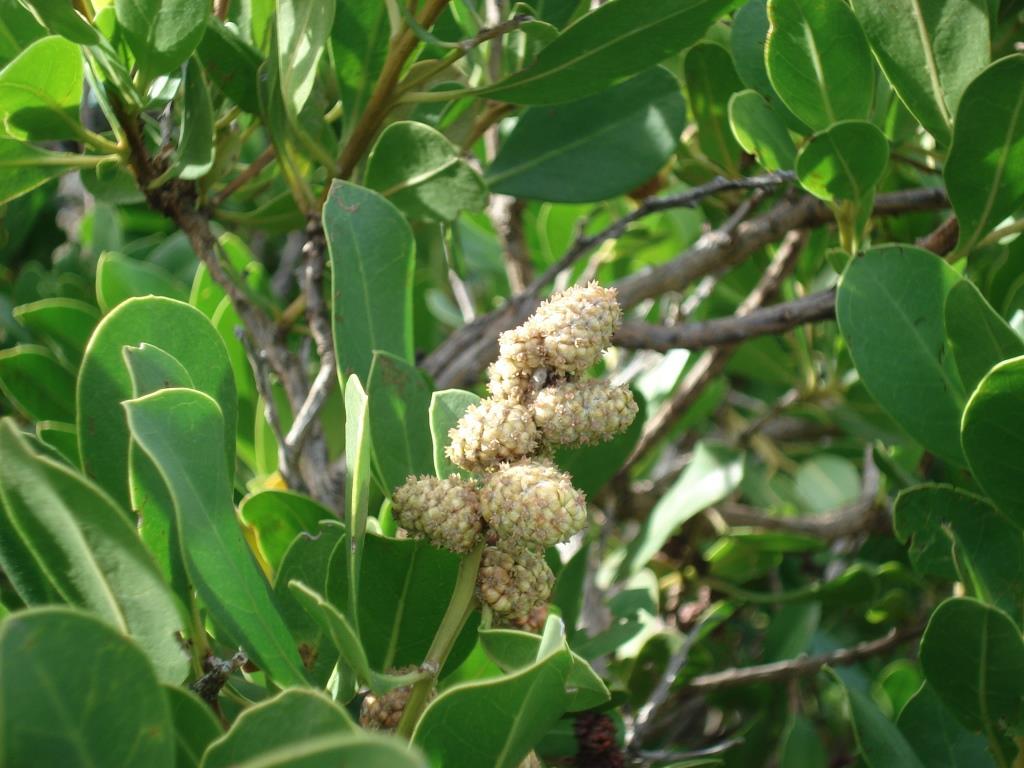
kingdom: Plantae
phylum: Tracheophyta
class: Magnoliopsida
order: Myrtales
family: Combretaceae
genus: Conocarpus
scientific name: Conocarpus erectus
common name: Button mangrove
